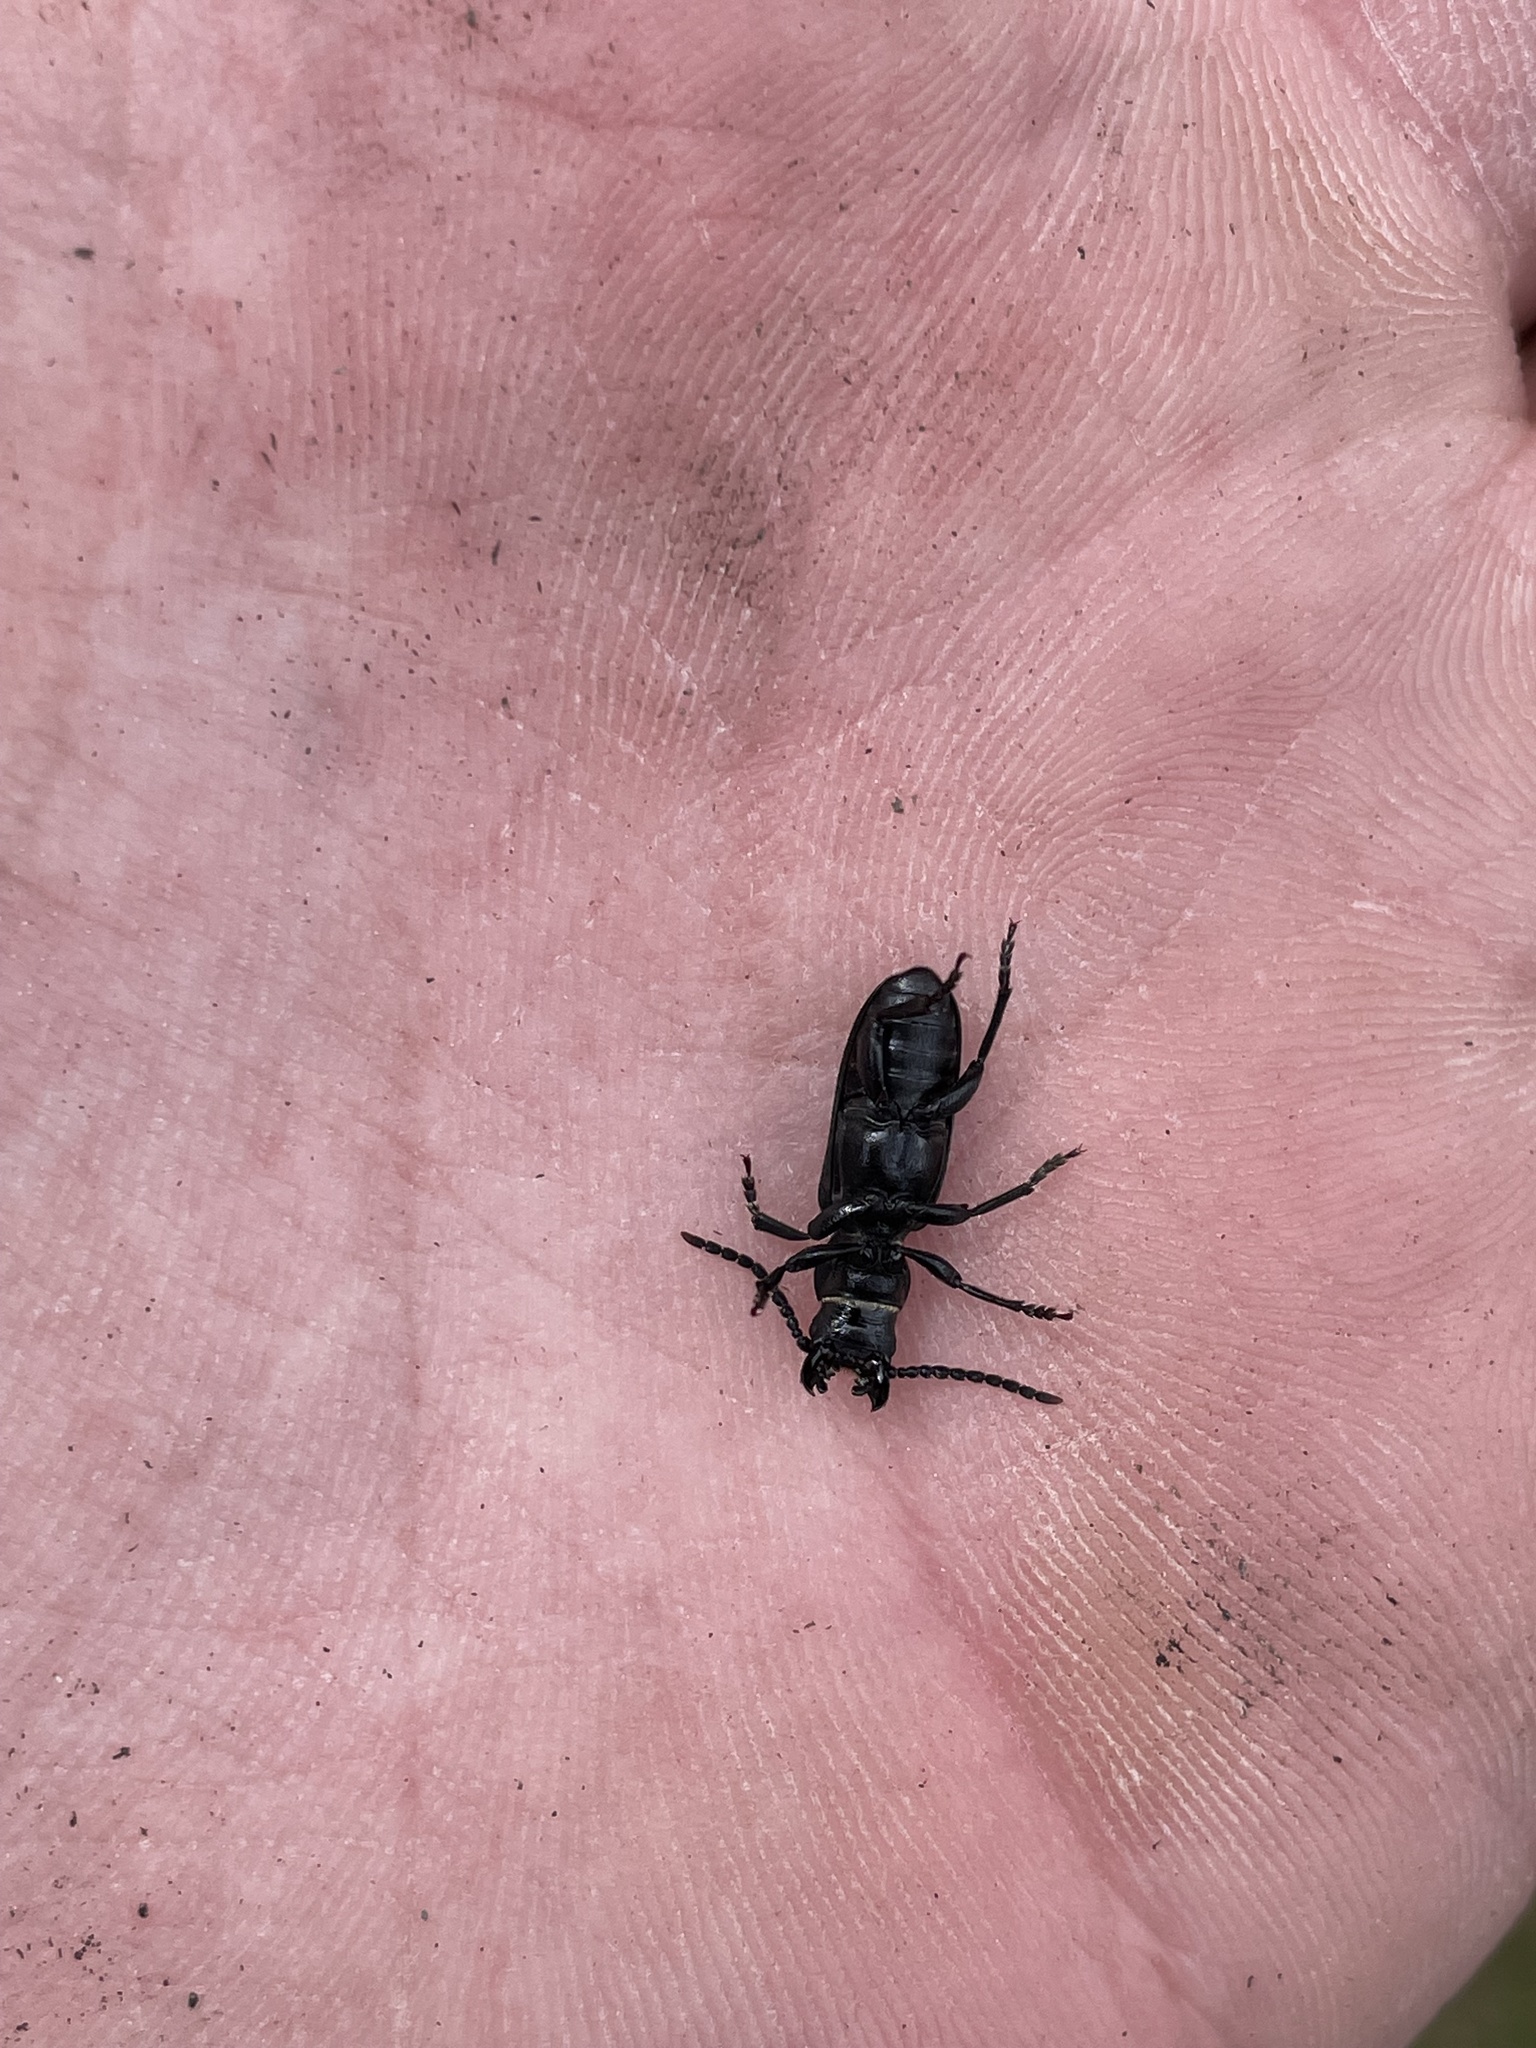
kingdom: Animalia
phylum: Arthropoda
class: Insecta
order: Coleoptera
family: Cerambycidae
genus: Neospondylis
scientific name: Neospondylis upiformis
